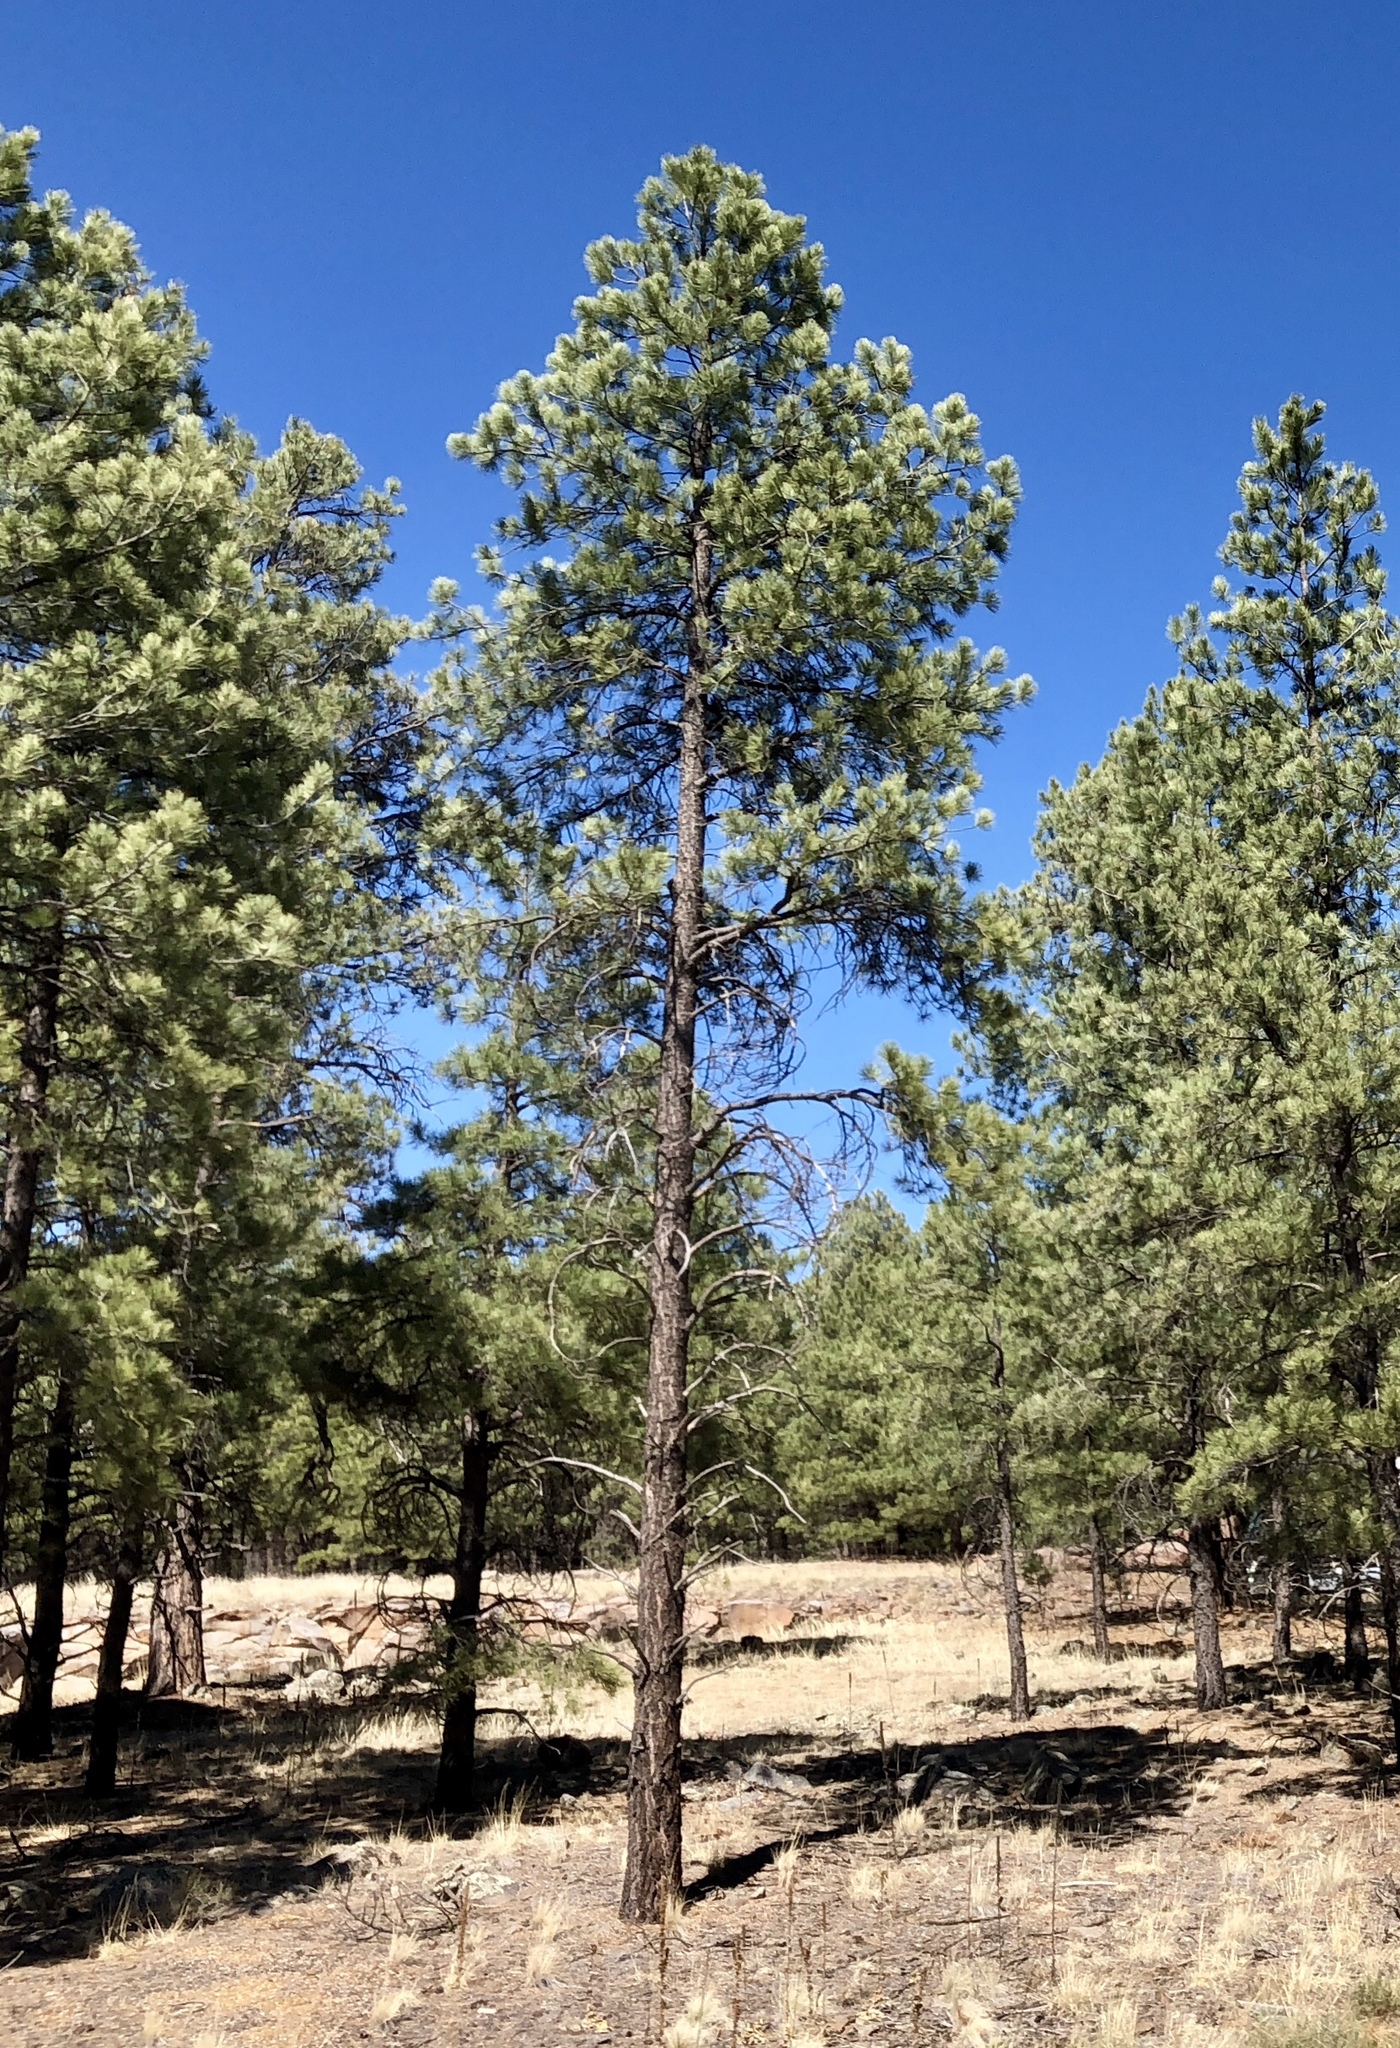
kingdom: Plantae
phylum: Tracheophyta
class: Pinopsida
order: Pinales
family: Pinaceae
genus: Pinus
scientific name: Pinus ponderosa
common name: Western yellow-pine
